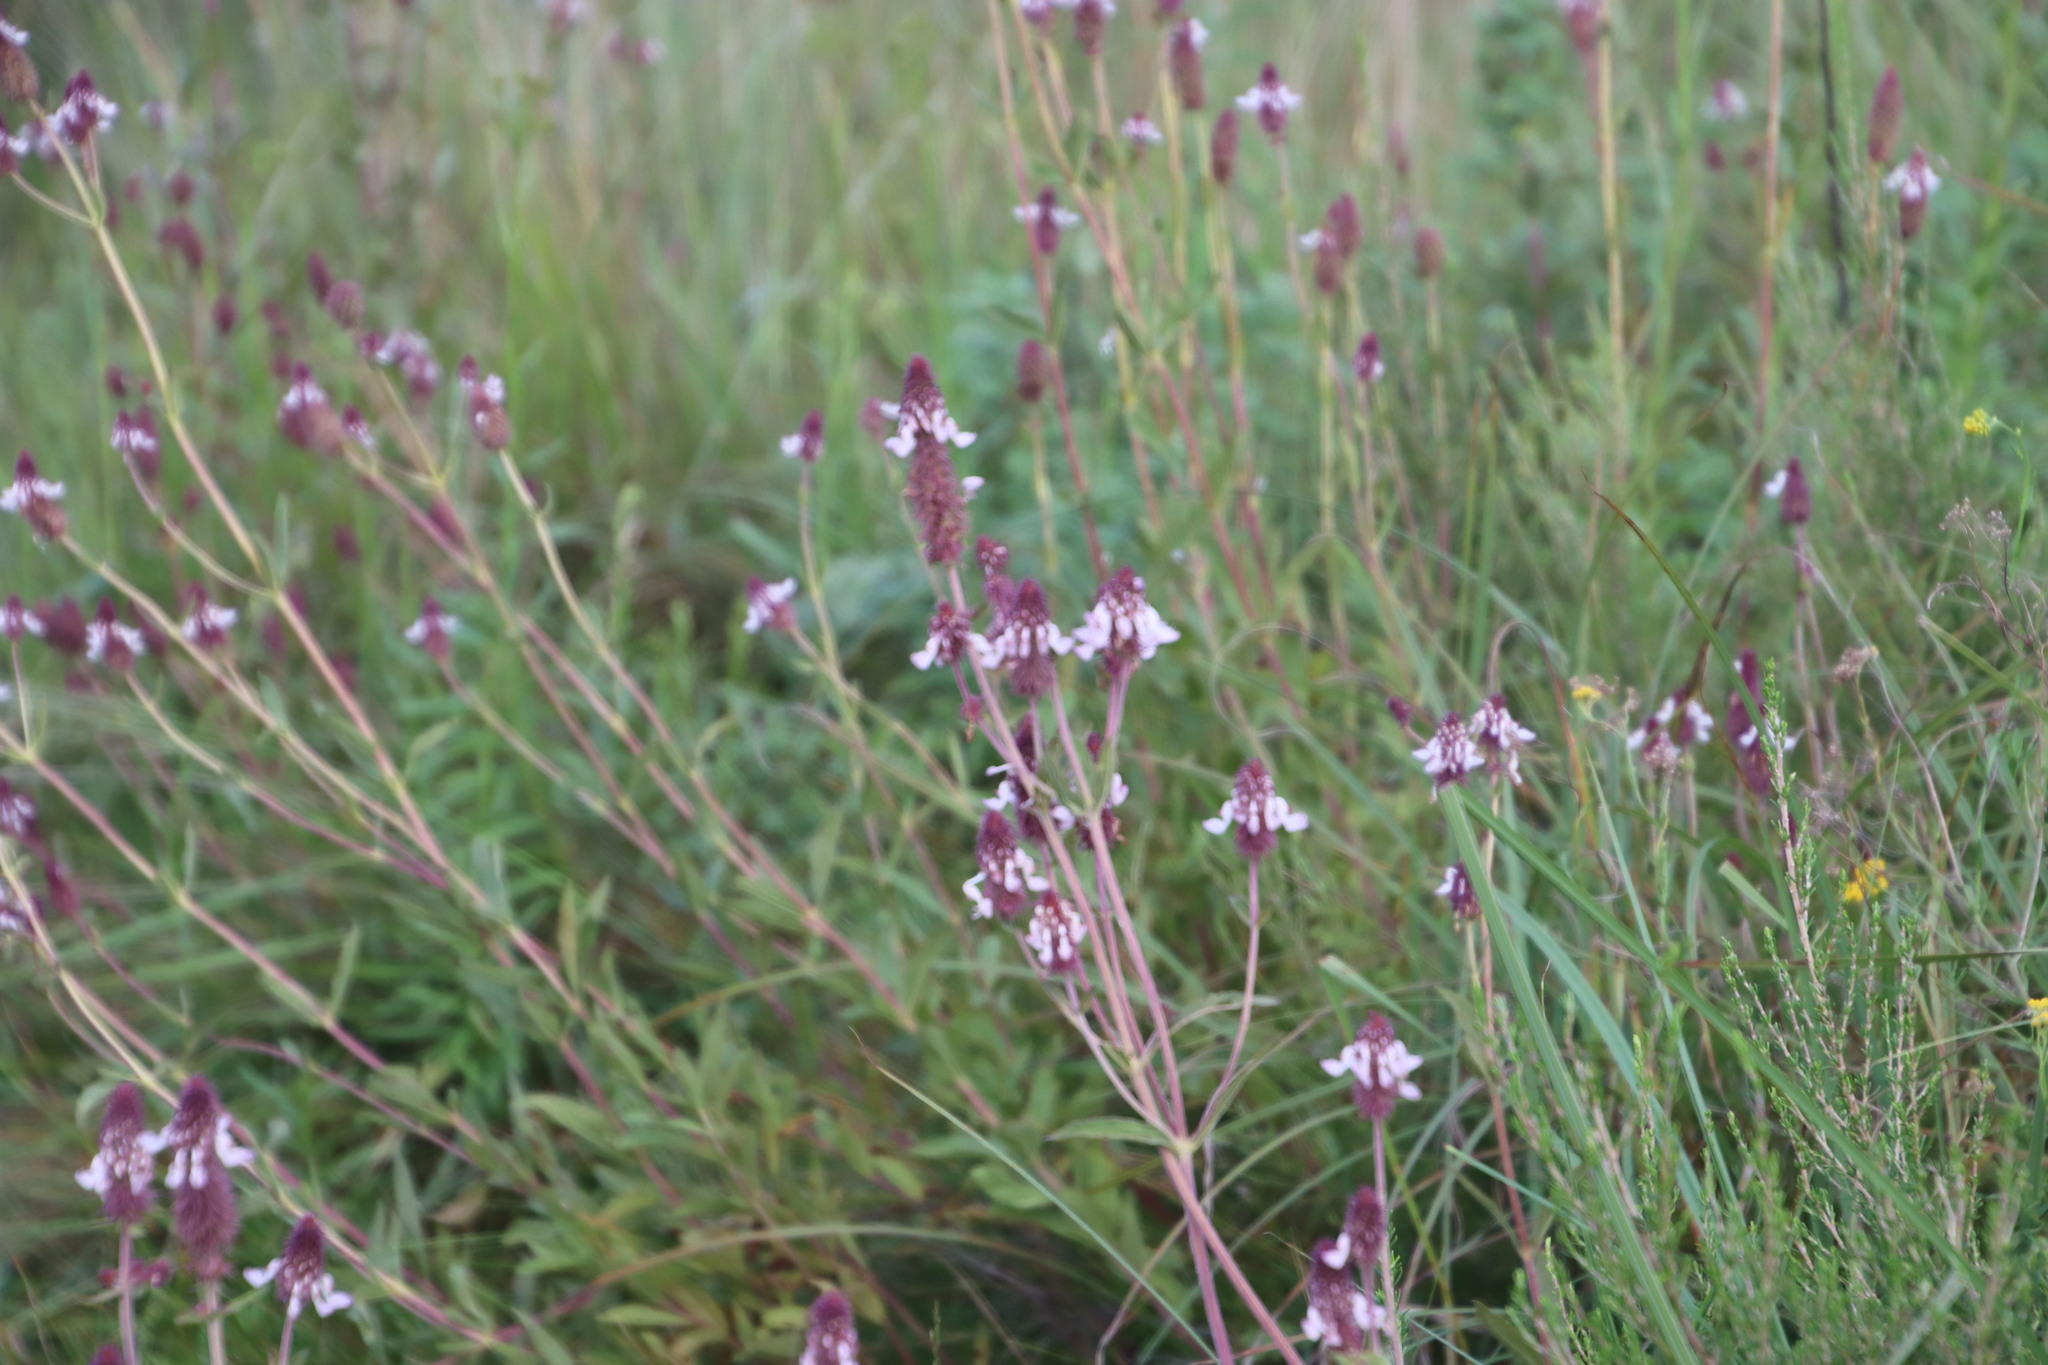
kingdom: Plantae
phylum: Tracheophyta
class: Magnoliopsida
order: Lamiales
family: Lamiaceae
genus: Coleus
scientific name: Coleus kirkii
